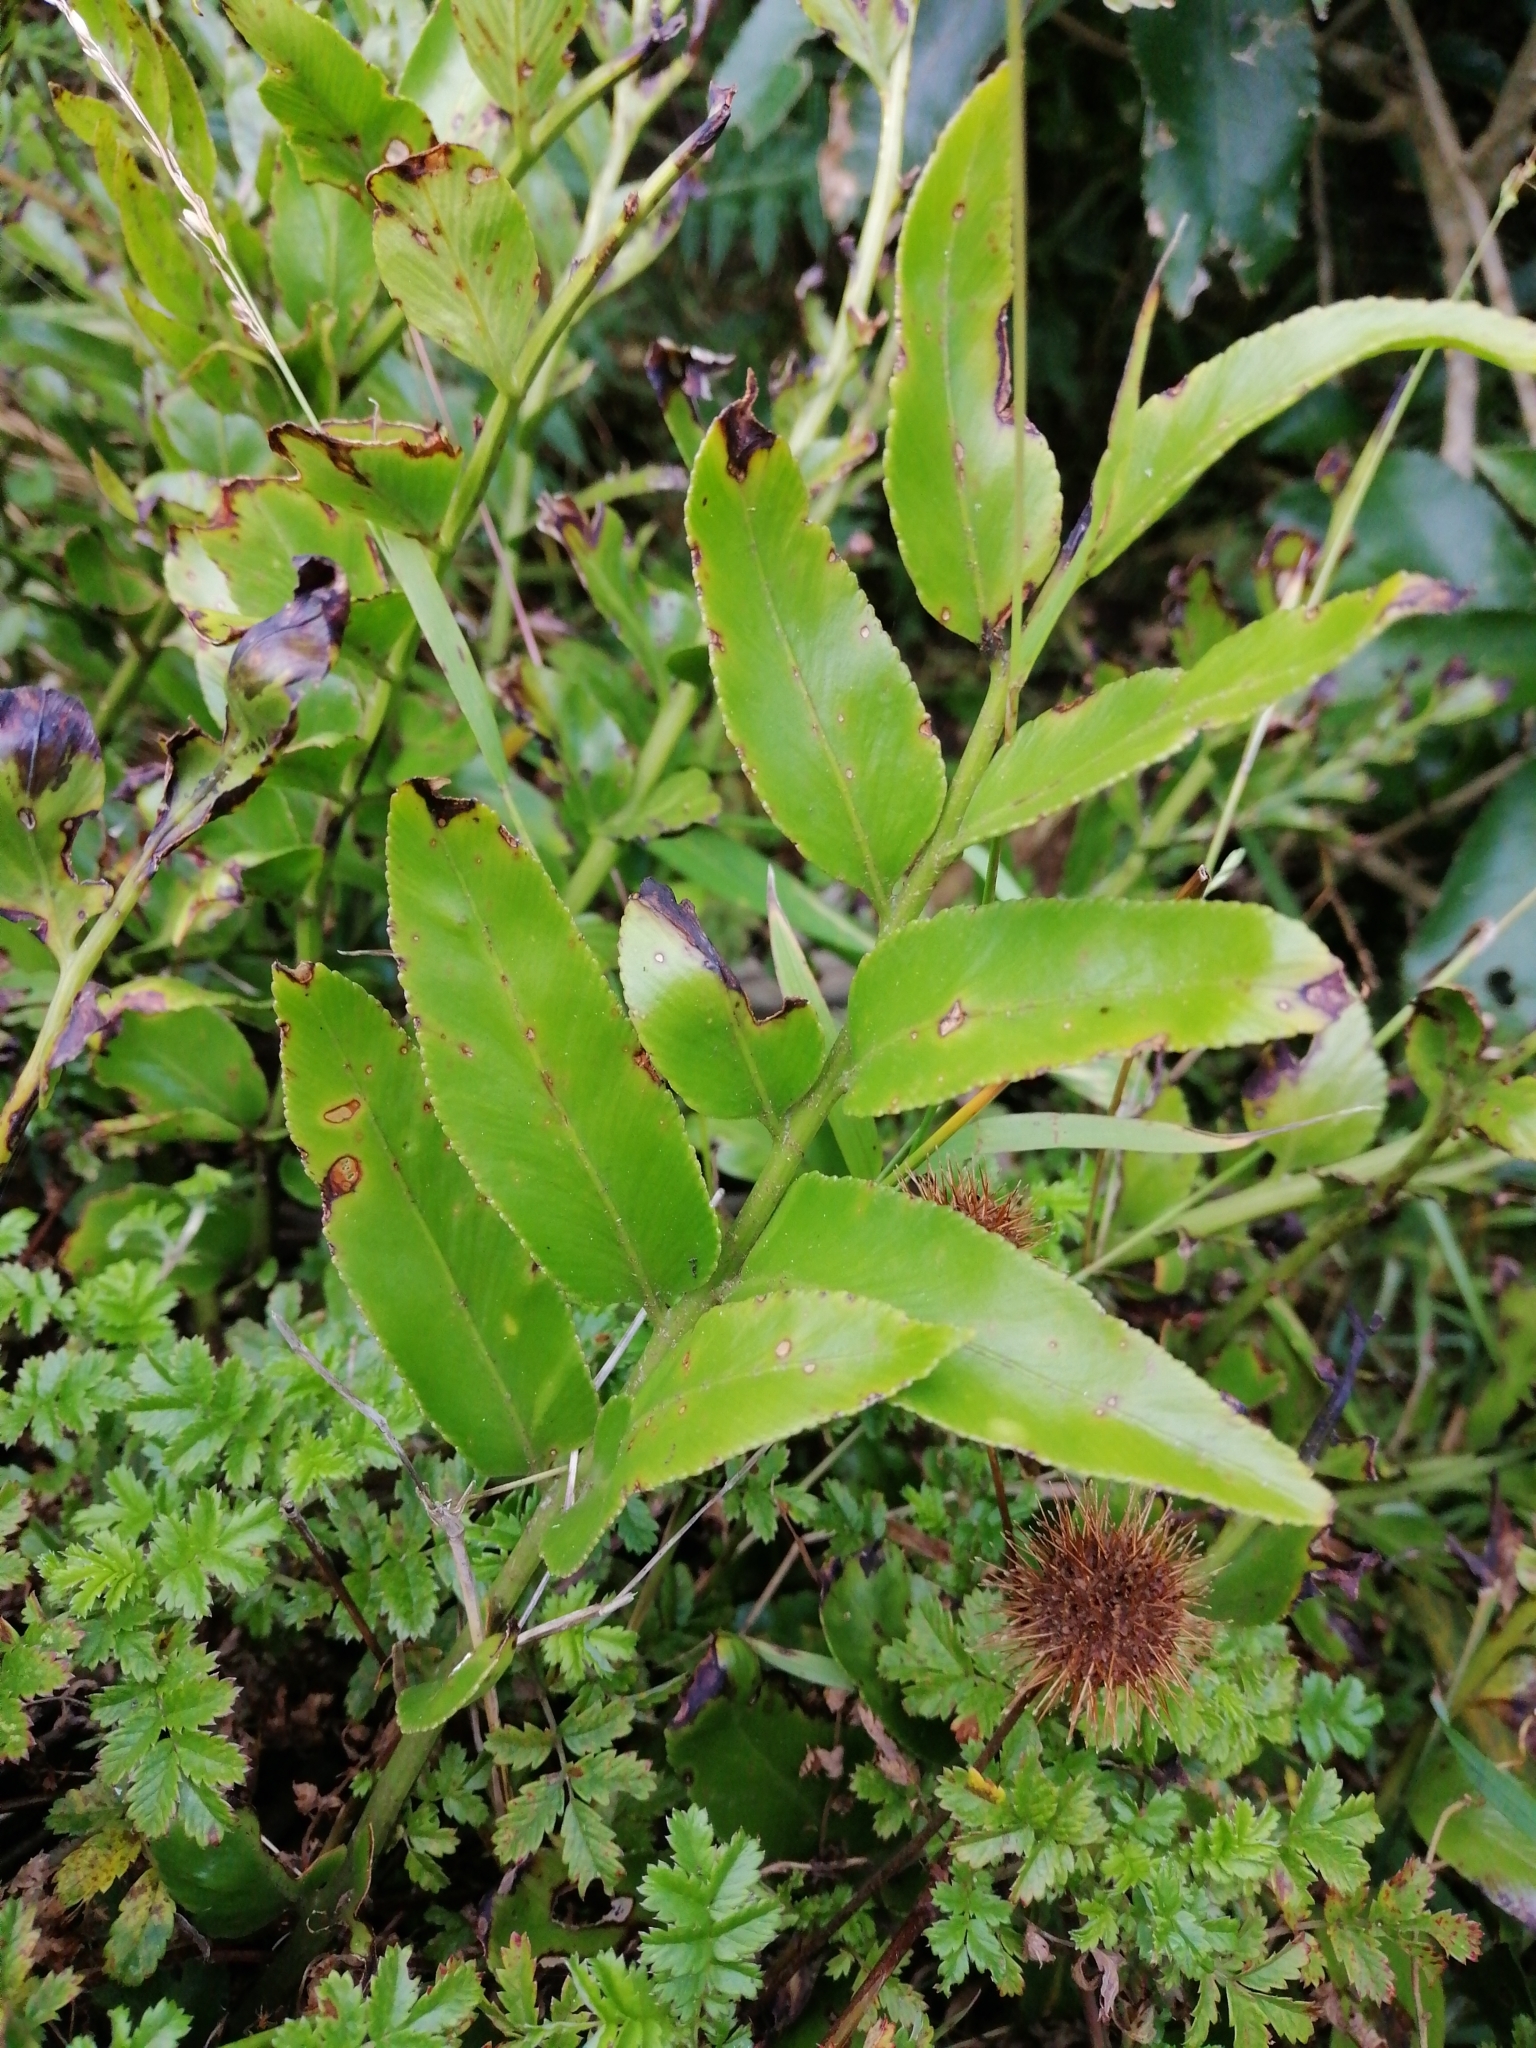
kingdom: Plantae
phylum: Tracheophyta
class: Polypodiopsida
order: Polypodiales
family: Aspleniaceae
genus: Asplenium
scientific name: Asplenium oblongifolium
